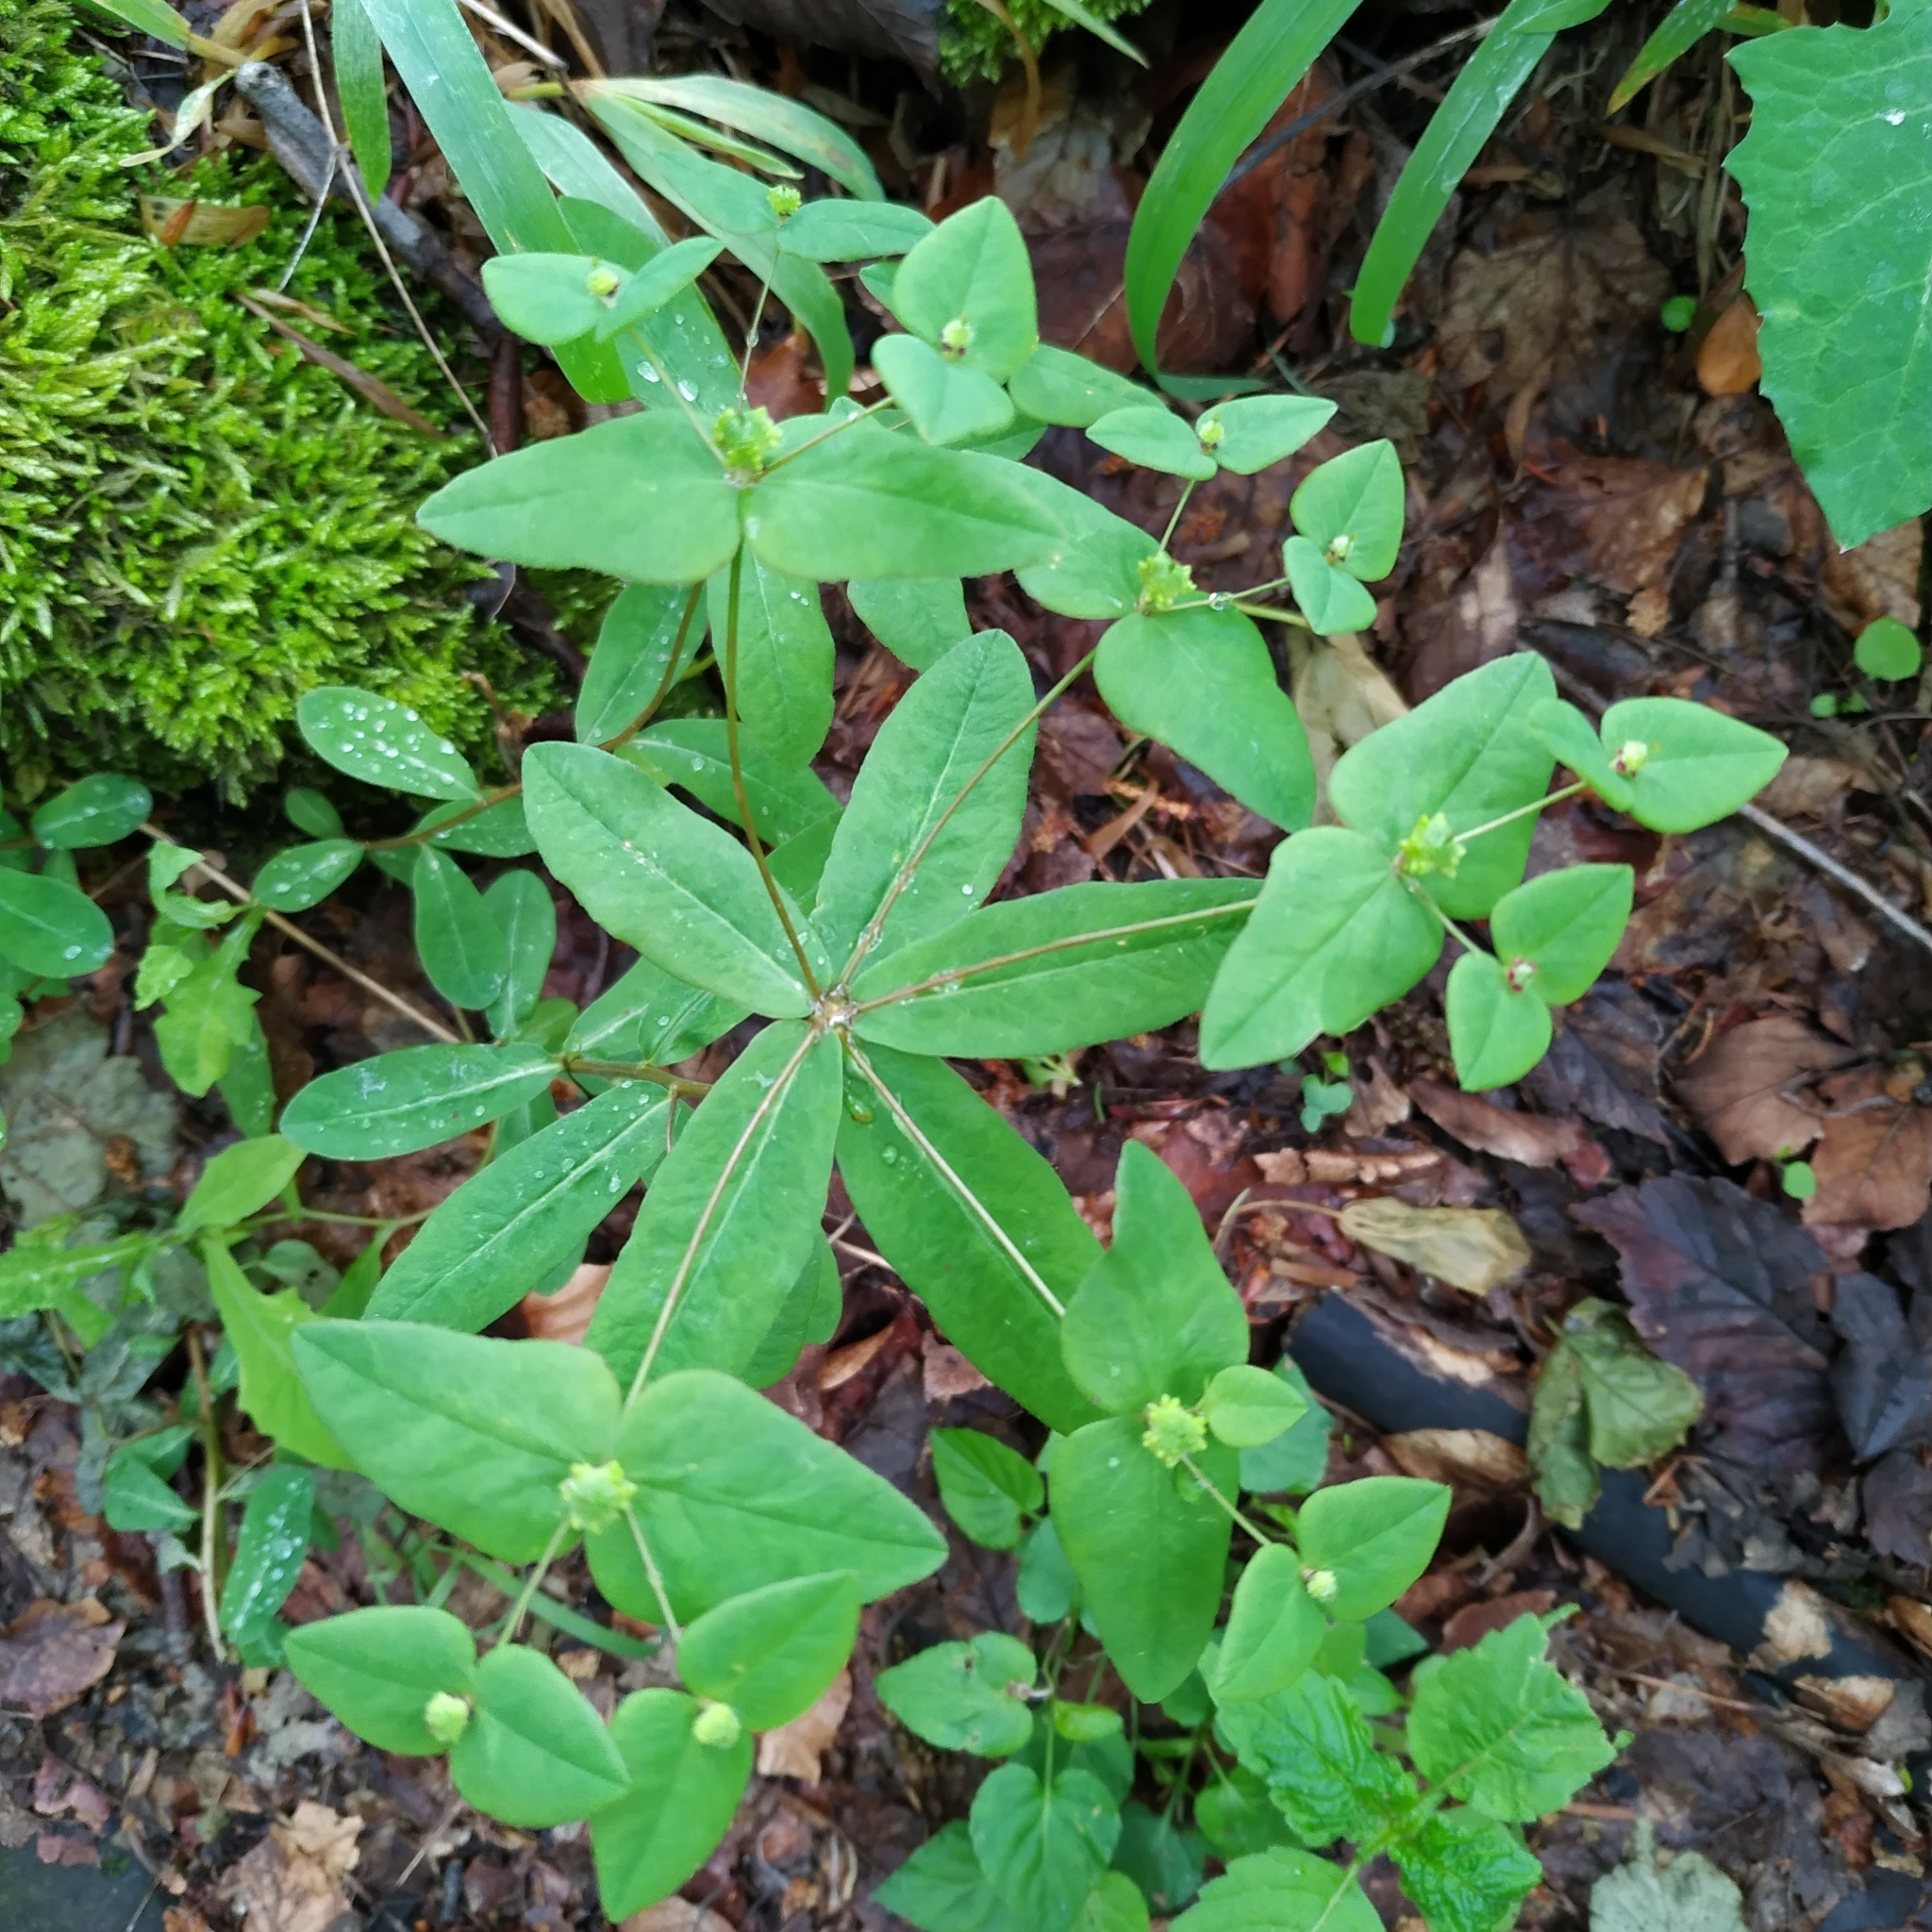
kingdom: Plantae
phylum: Tracheophyta
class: Magnoliopsida
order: Malpighiales
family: Euphorbiaceae
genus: Euphorbia
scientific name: Euphorbia dulcis
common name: Sweet spurge
